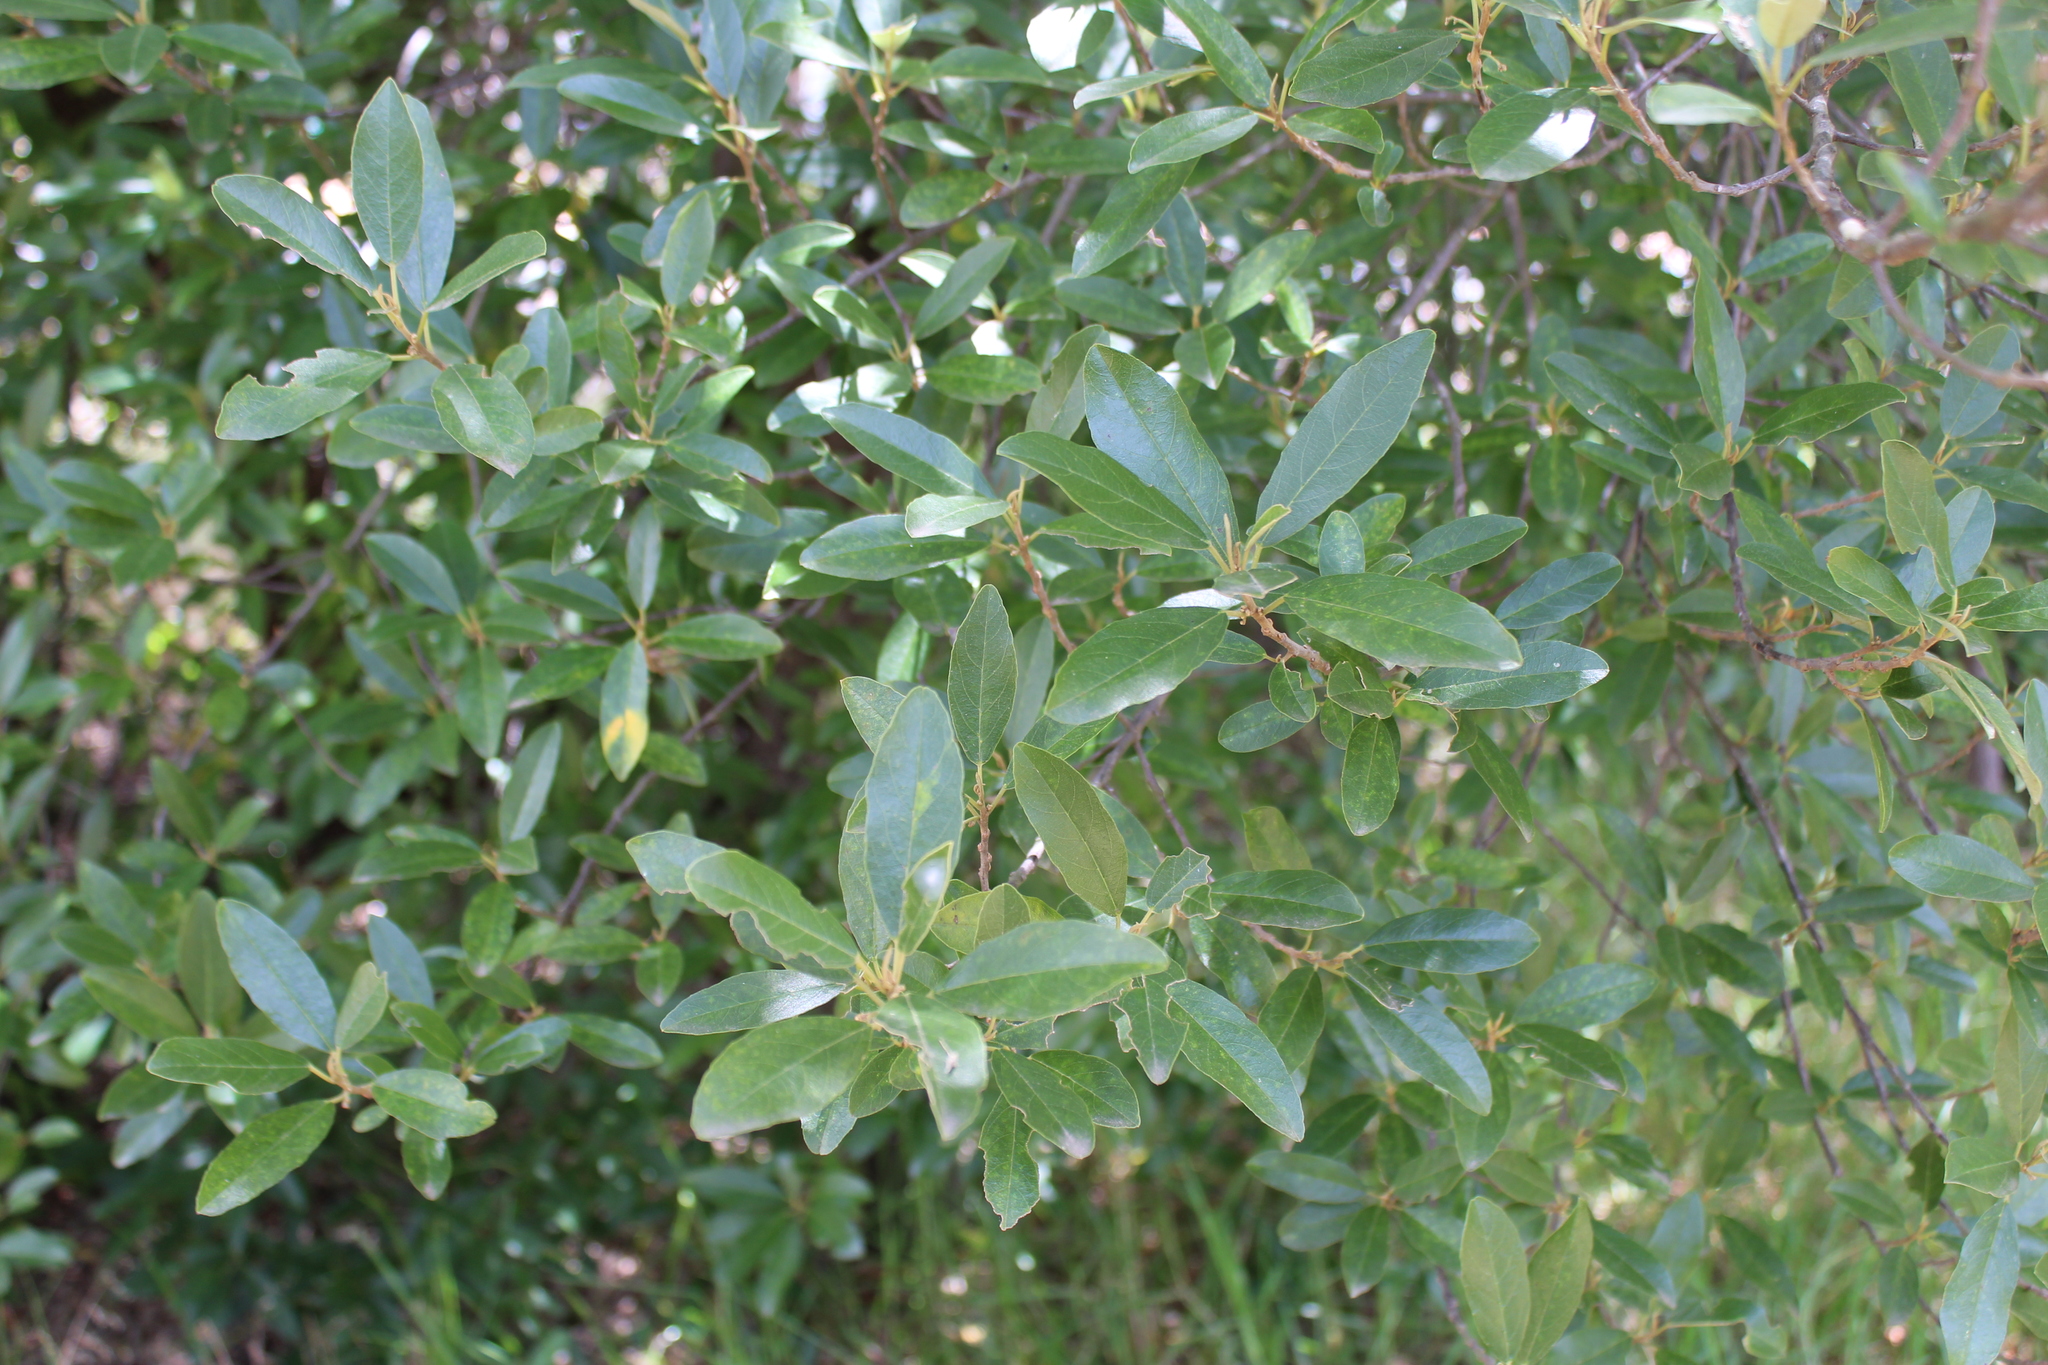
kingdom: Plantae
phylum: Tracheophyta
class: Magnoliopsida
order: Malpighiales
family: Achariaceae
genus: Kiggelaria
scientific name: Kiggelaria africana
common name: Wild peach
